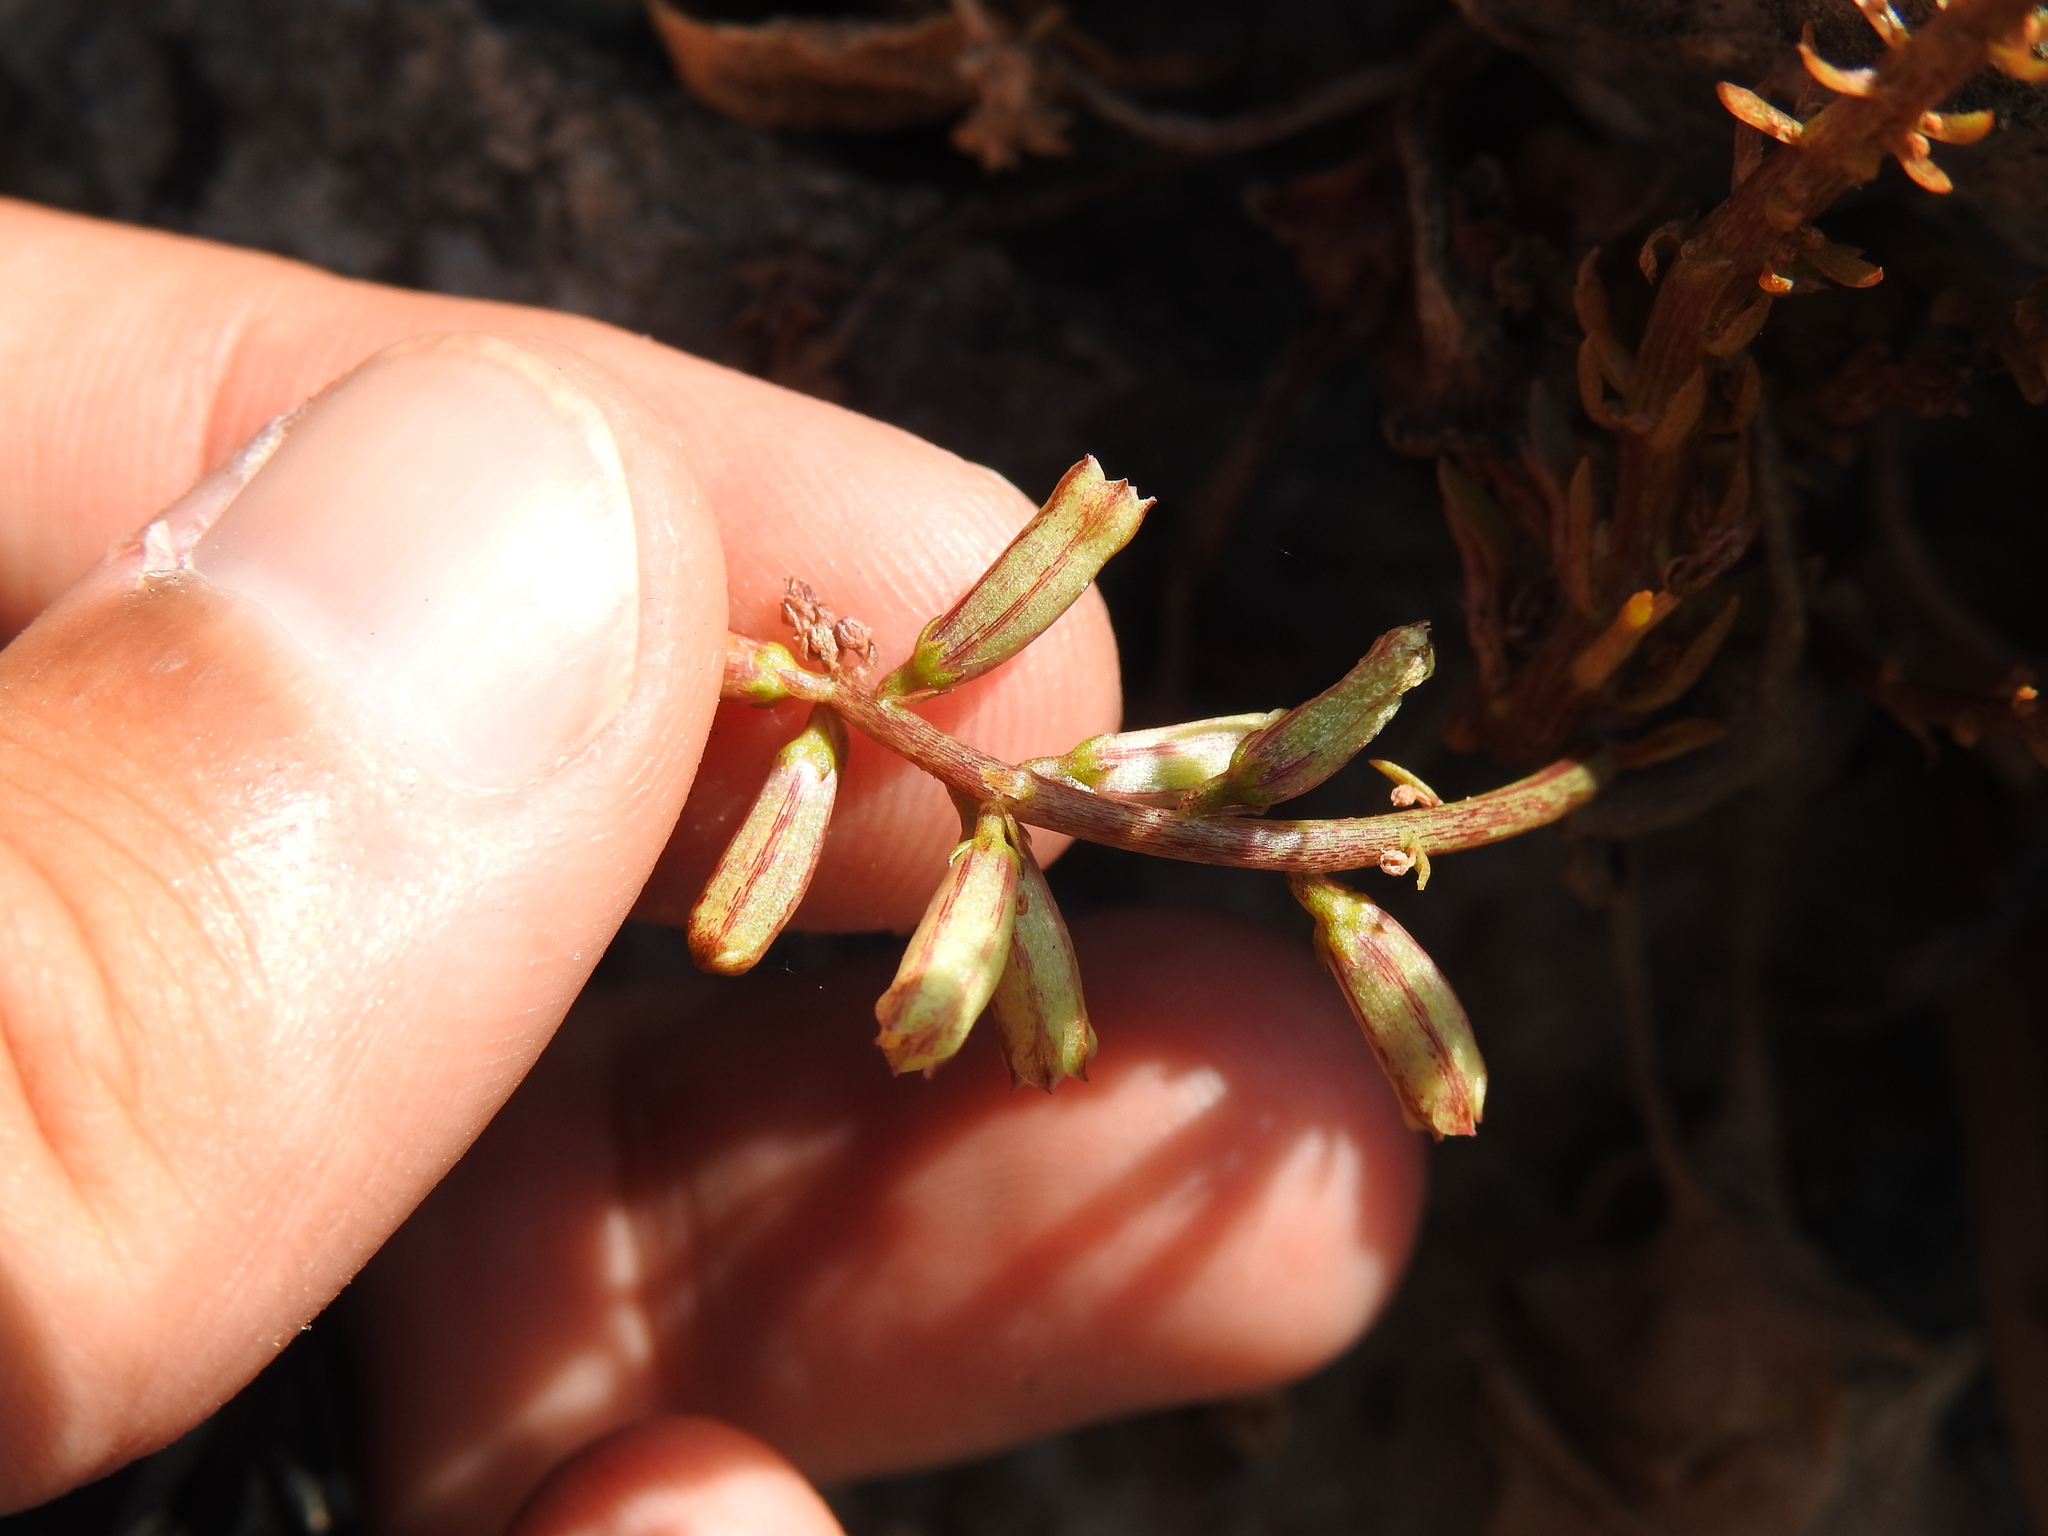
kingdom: Plantae
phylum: Tracheophyta
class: Magnoliopsida
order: Saxifragales
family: Crassulaceae
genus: Umbilicus
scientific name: Umbilicus rupestris
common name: Navelwort
